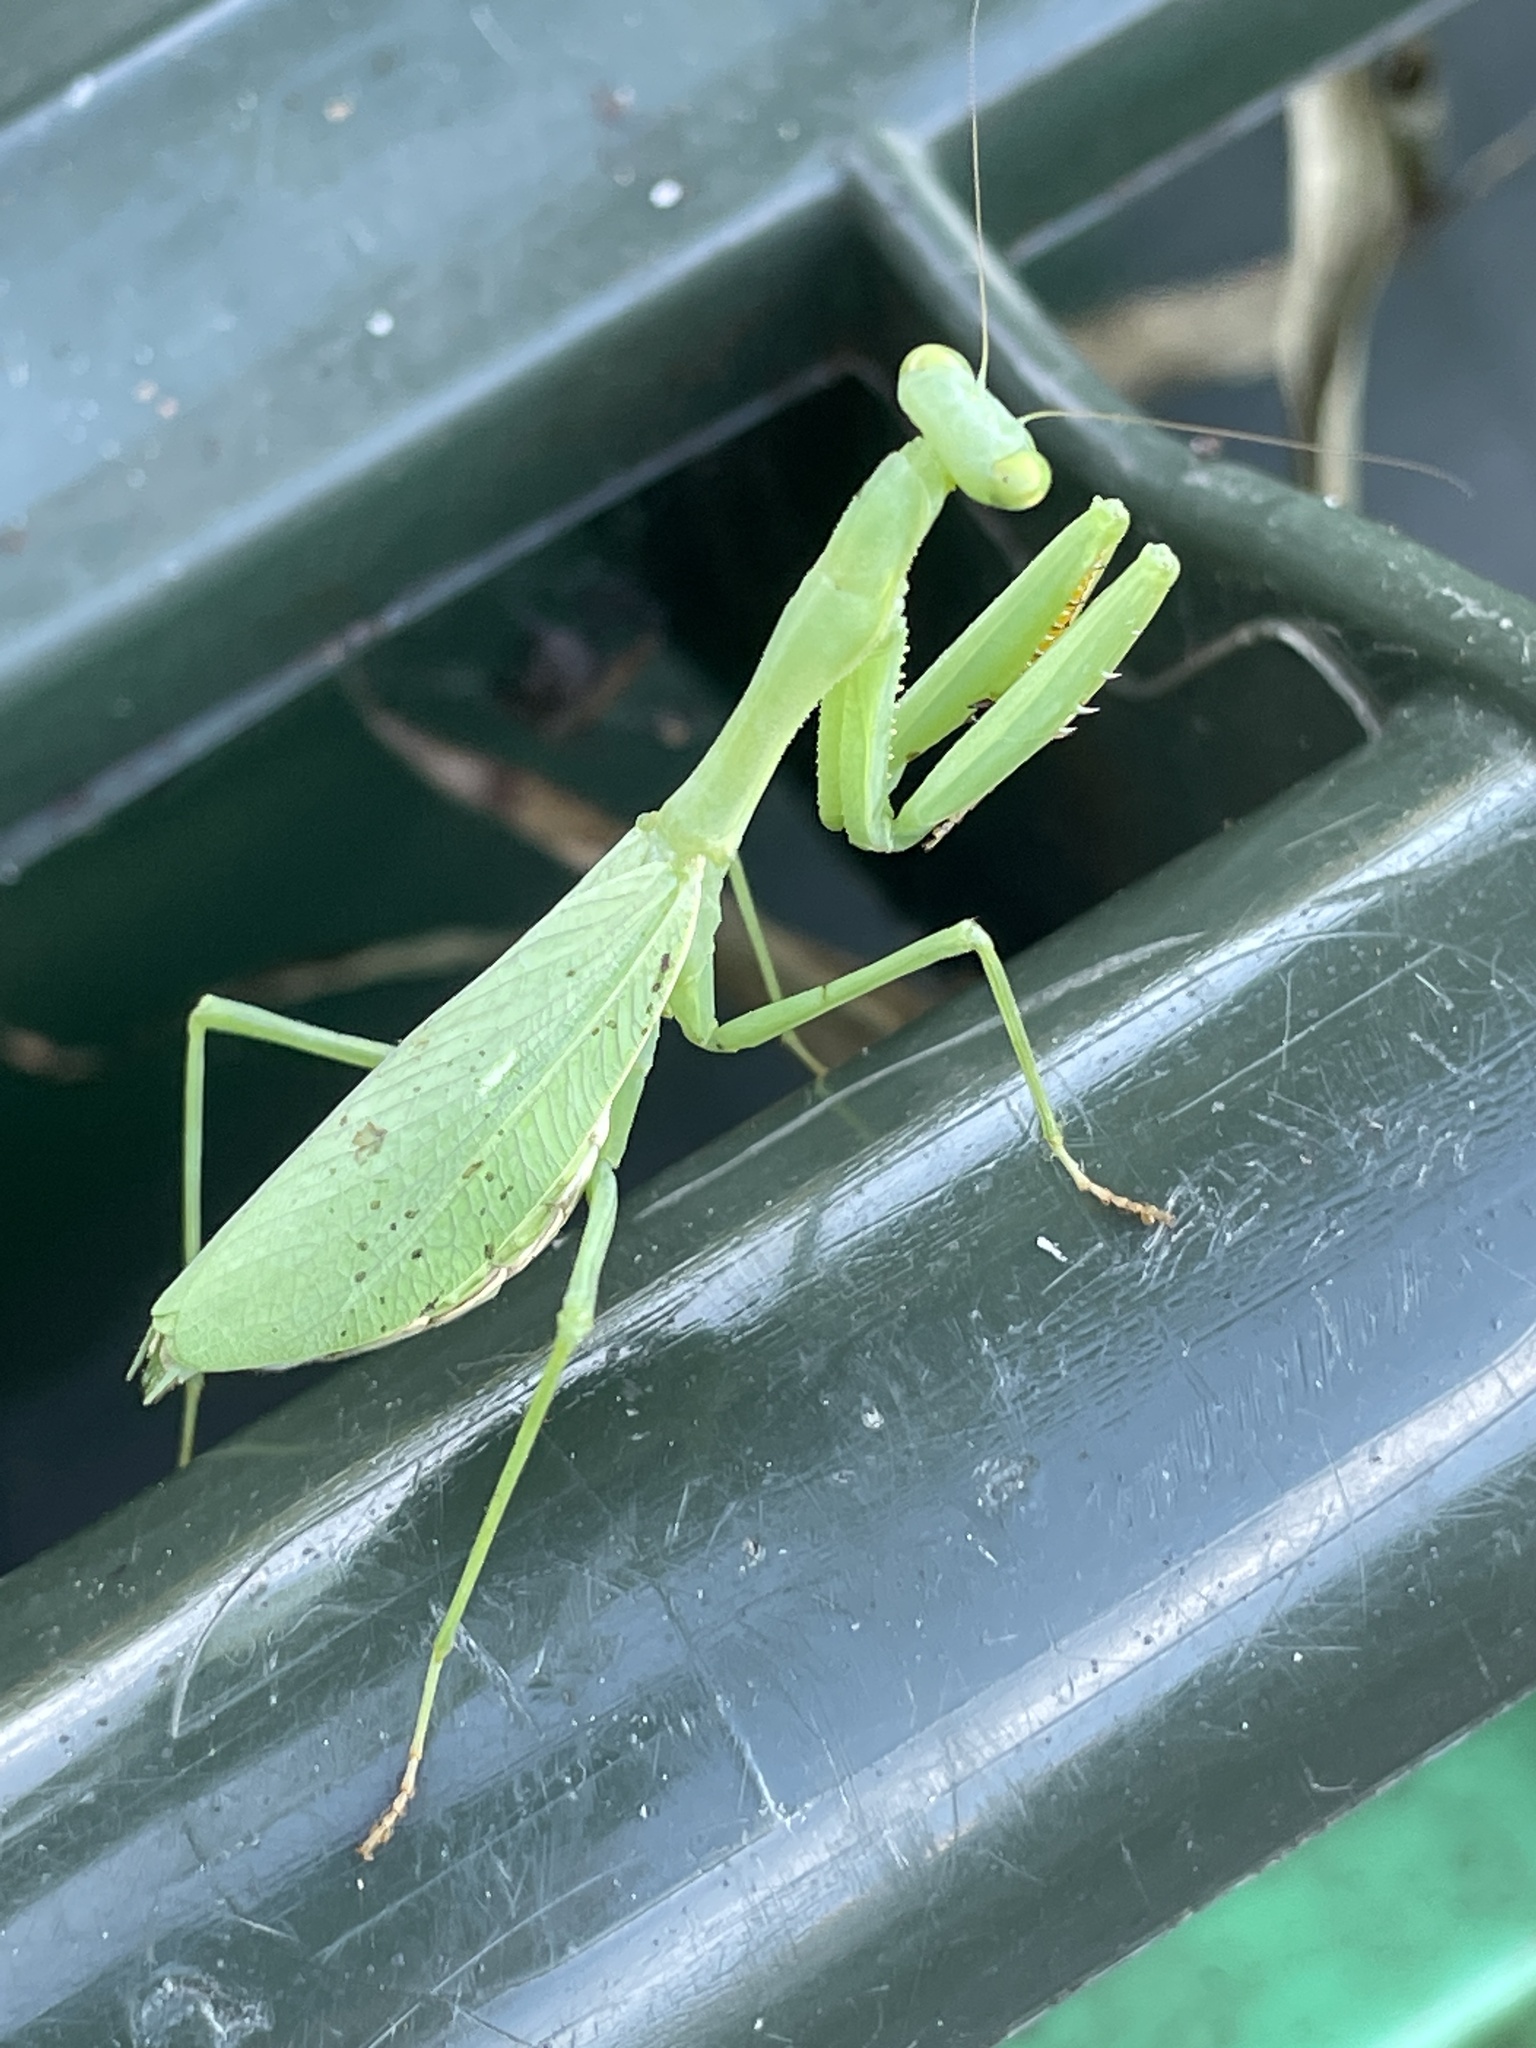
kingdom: Animalia
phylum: Arthropoda
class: Insecta
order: Mantodea
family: Miomantidae
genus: Miomantis
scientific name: Miomantis caffra
